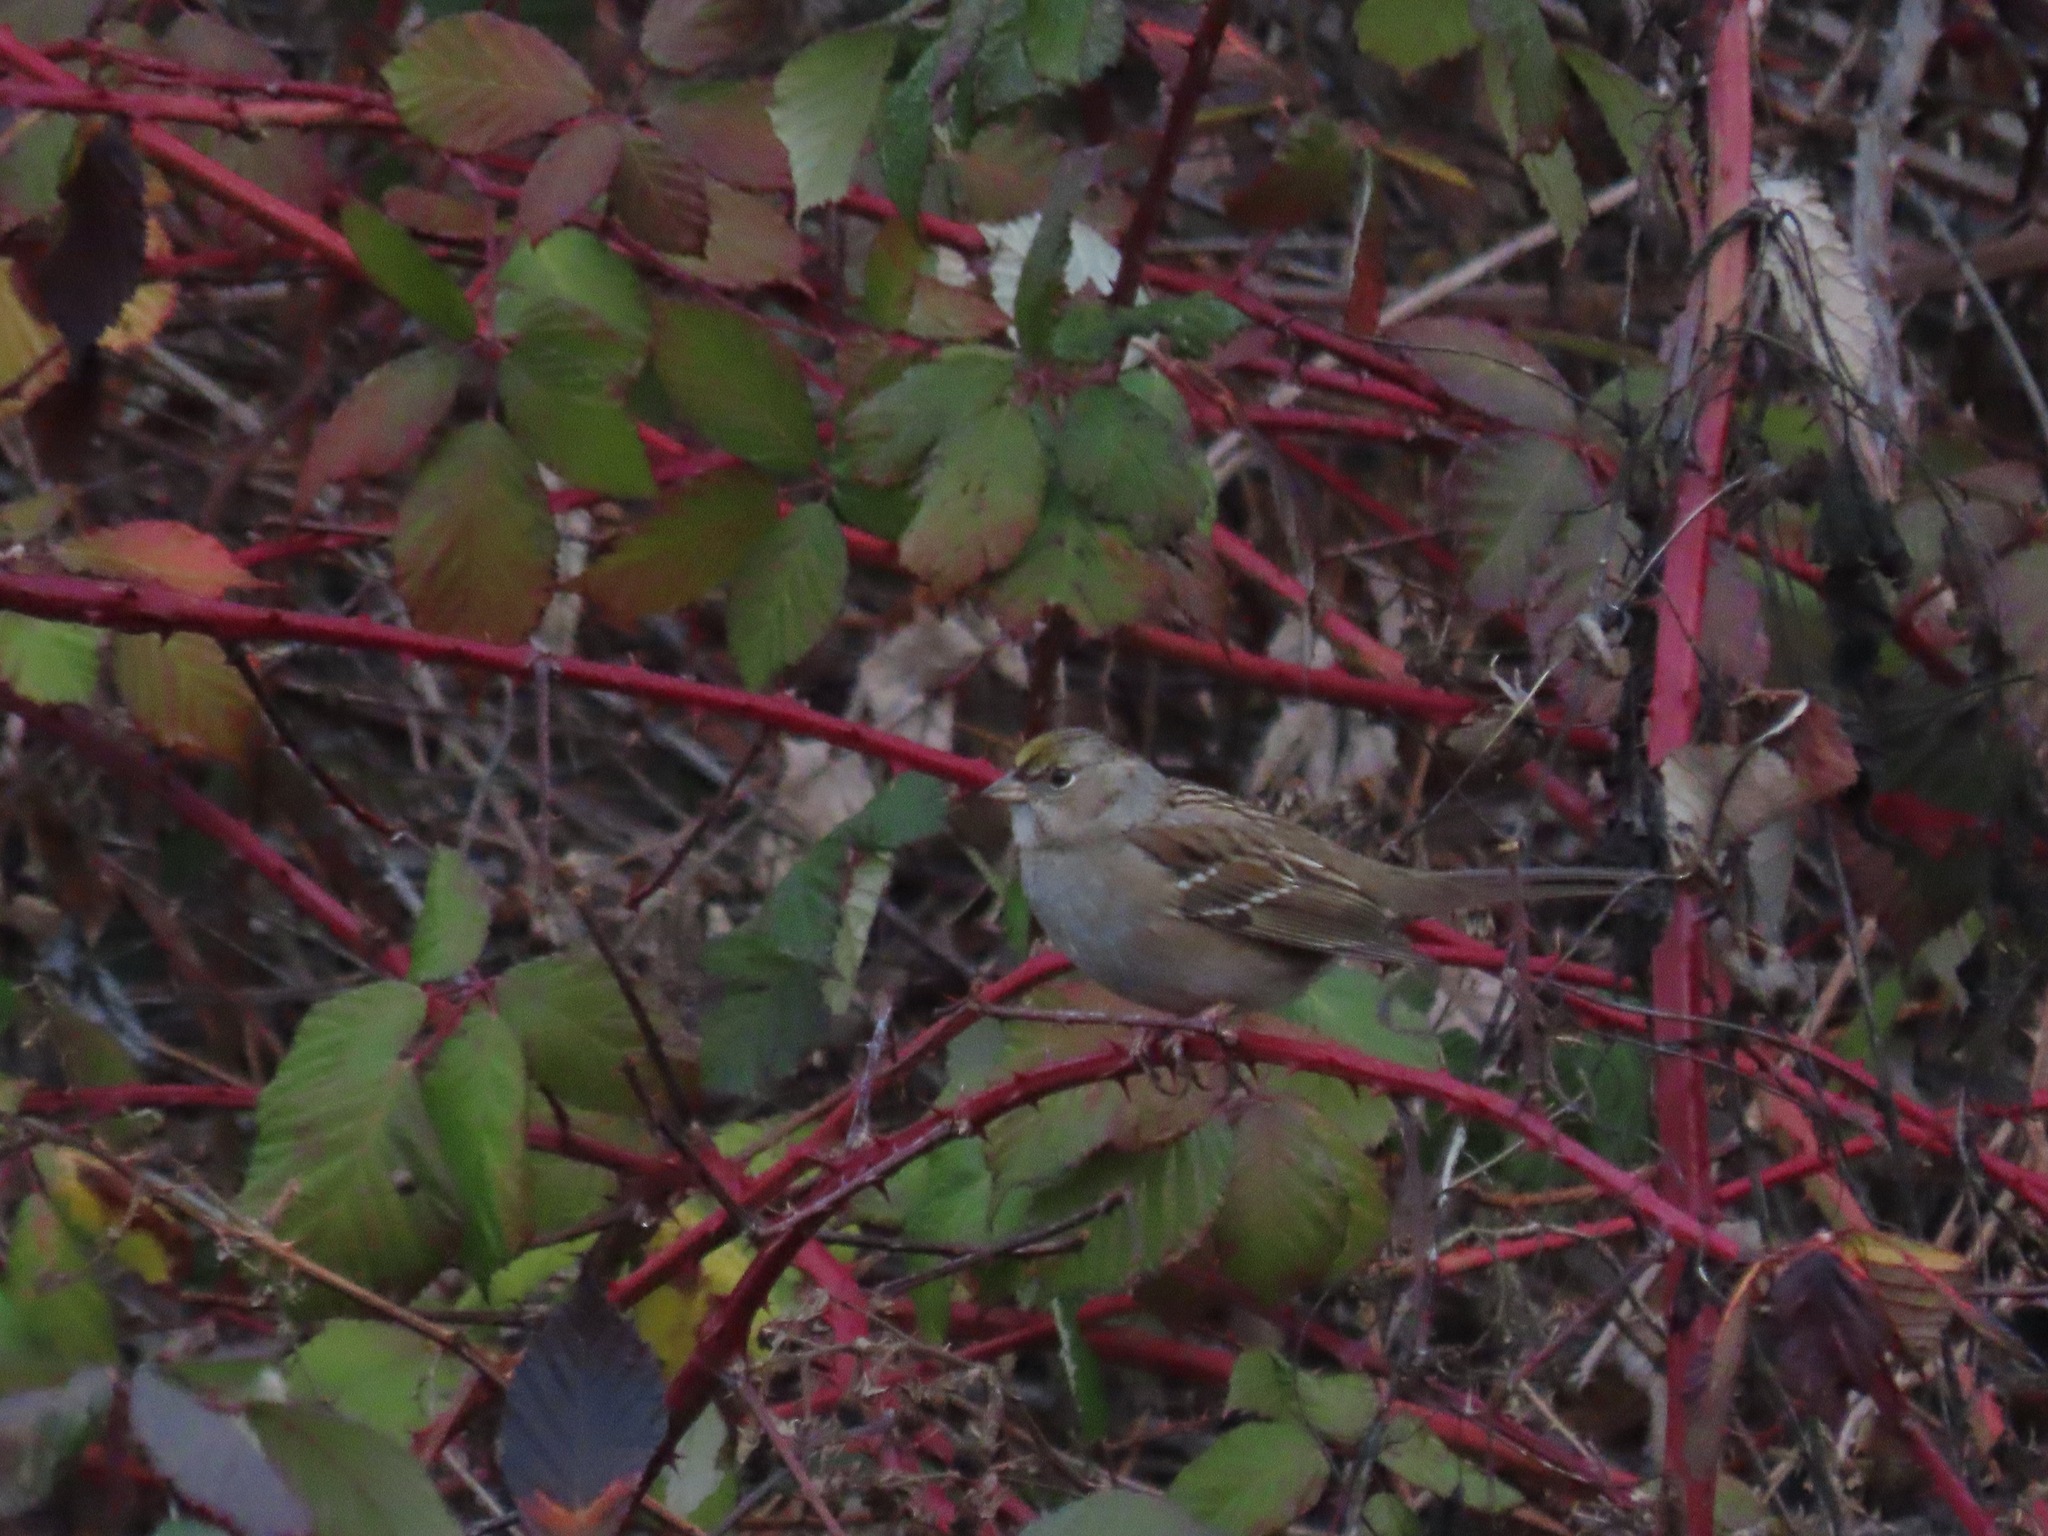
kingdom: Animalia
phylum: Chordata
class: Aves
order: Passeriformes
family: Passerellidae
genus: Zonotrichia
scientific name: Zonotrichia atricapilla
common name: Golden-crowned sparrow
